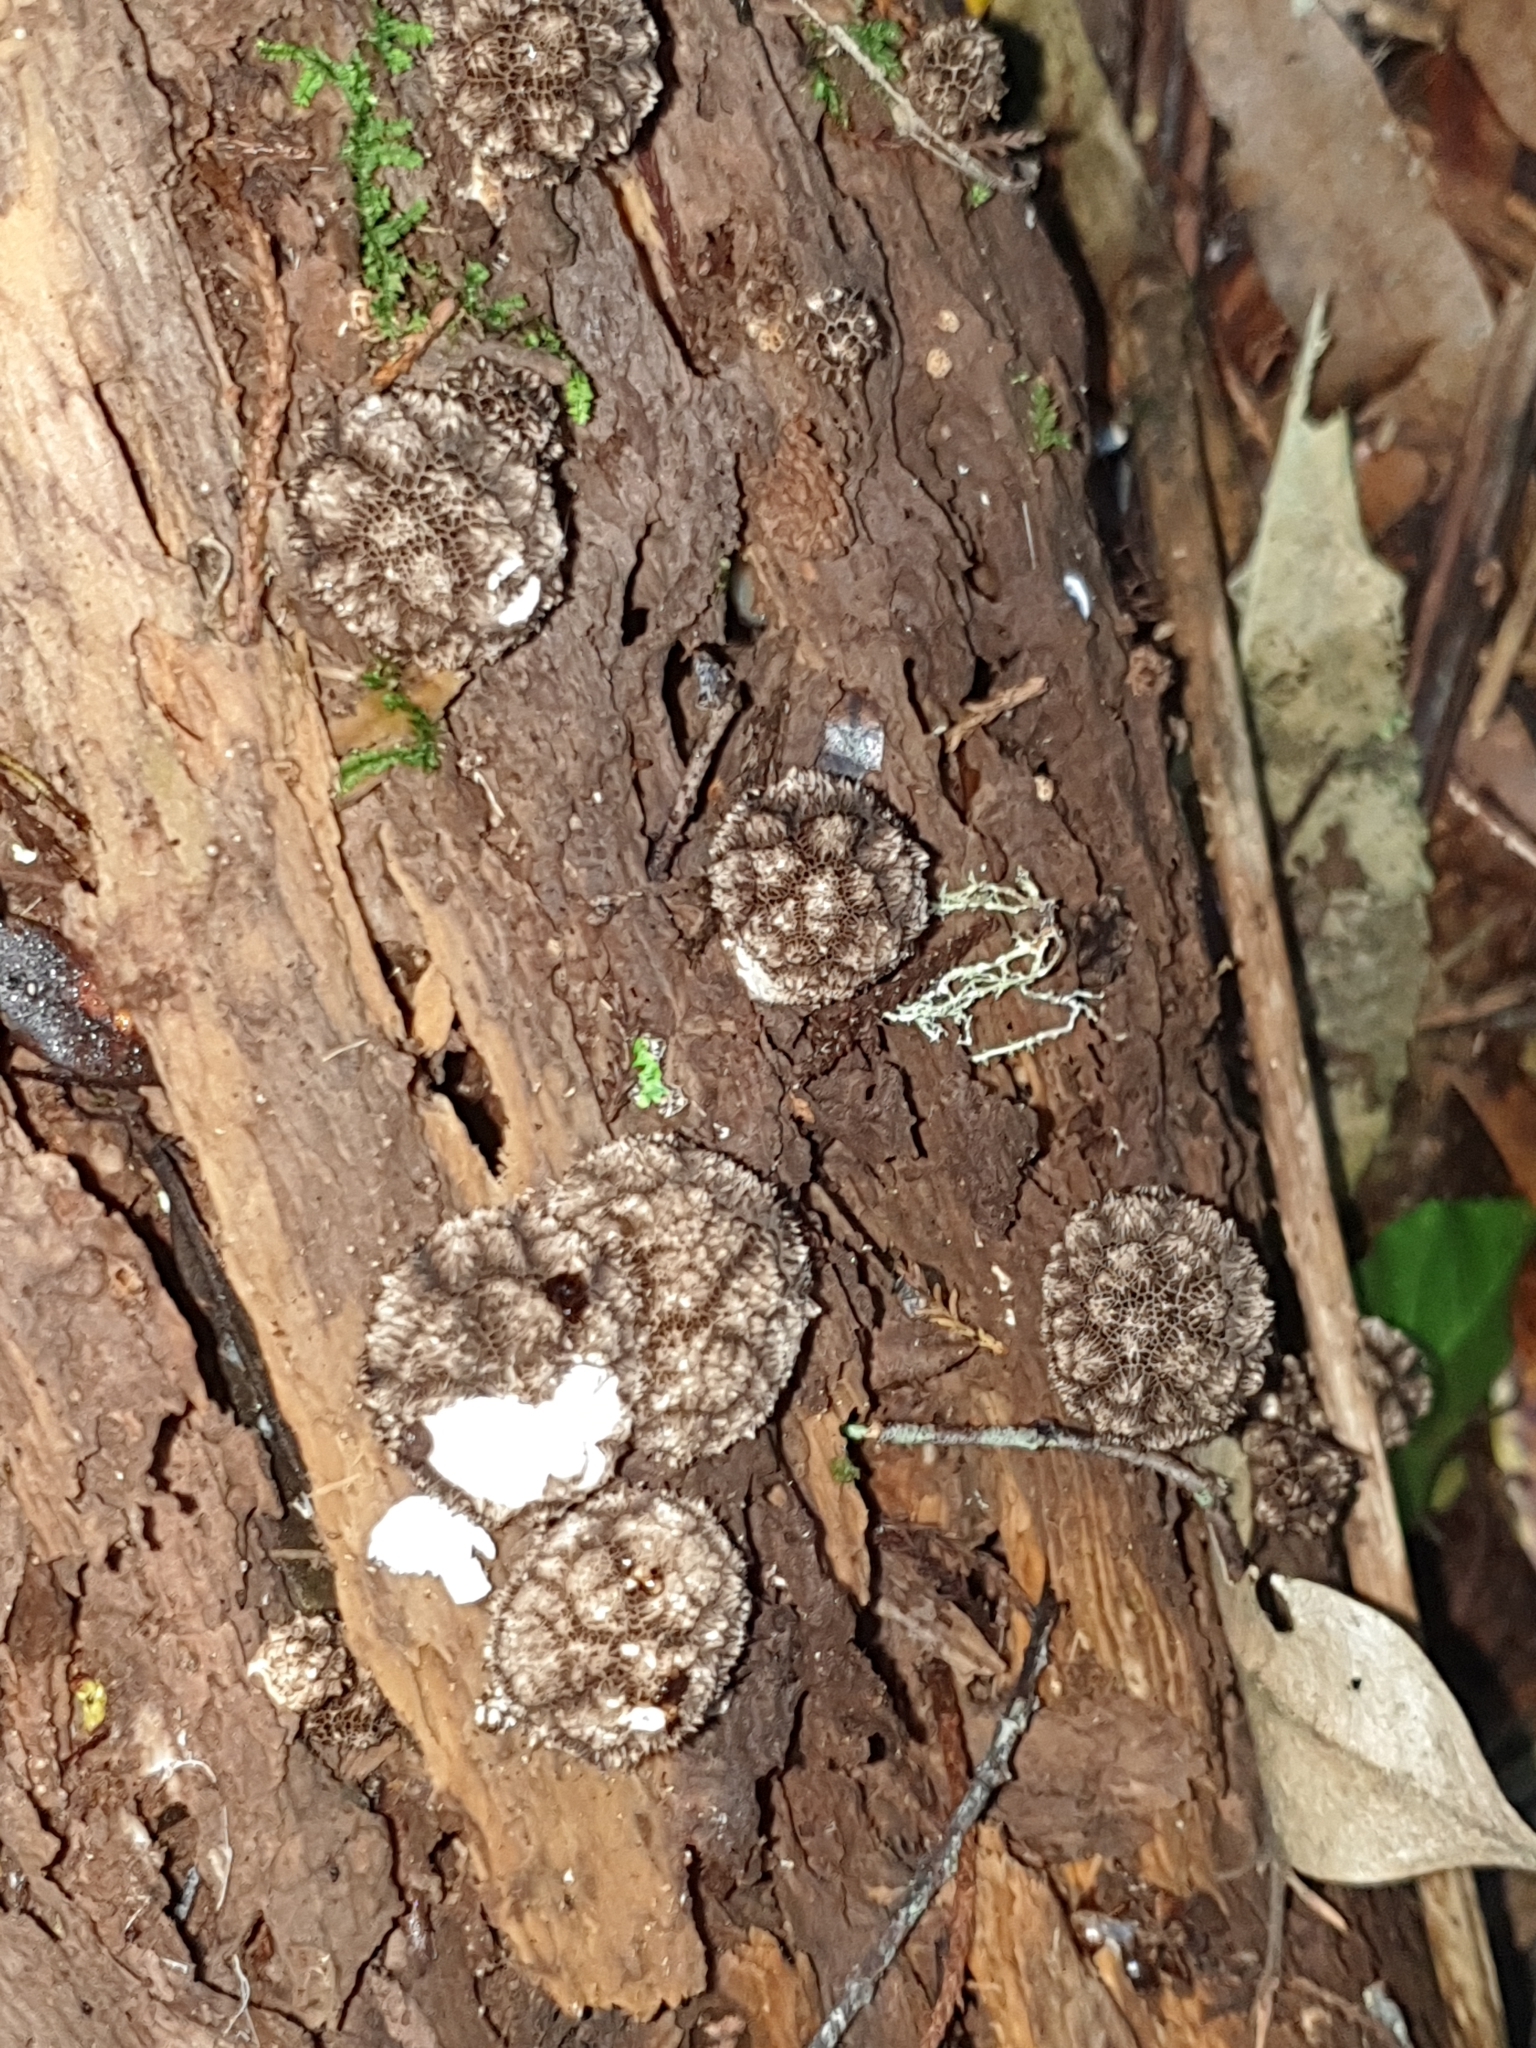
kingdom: Fungi
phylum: Basidiomycota
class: Agaricomycetes
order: Agaricales
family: Lycoperdaceae
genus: Lycoperdon
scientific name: Lycoperdon compactum
